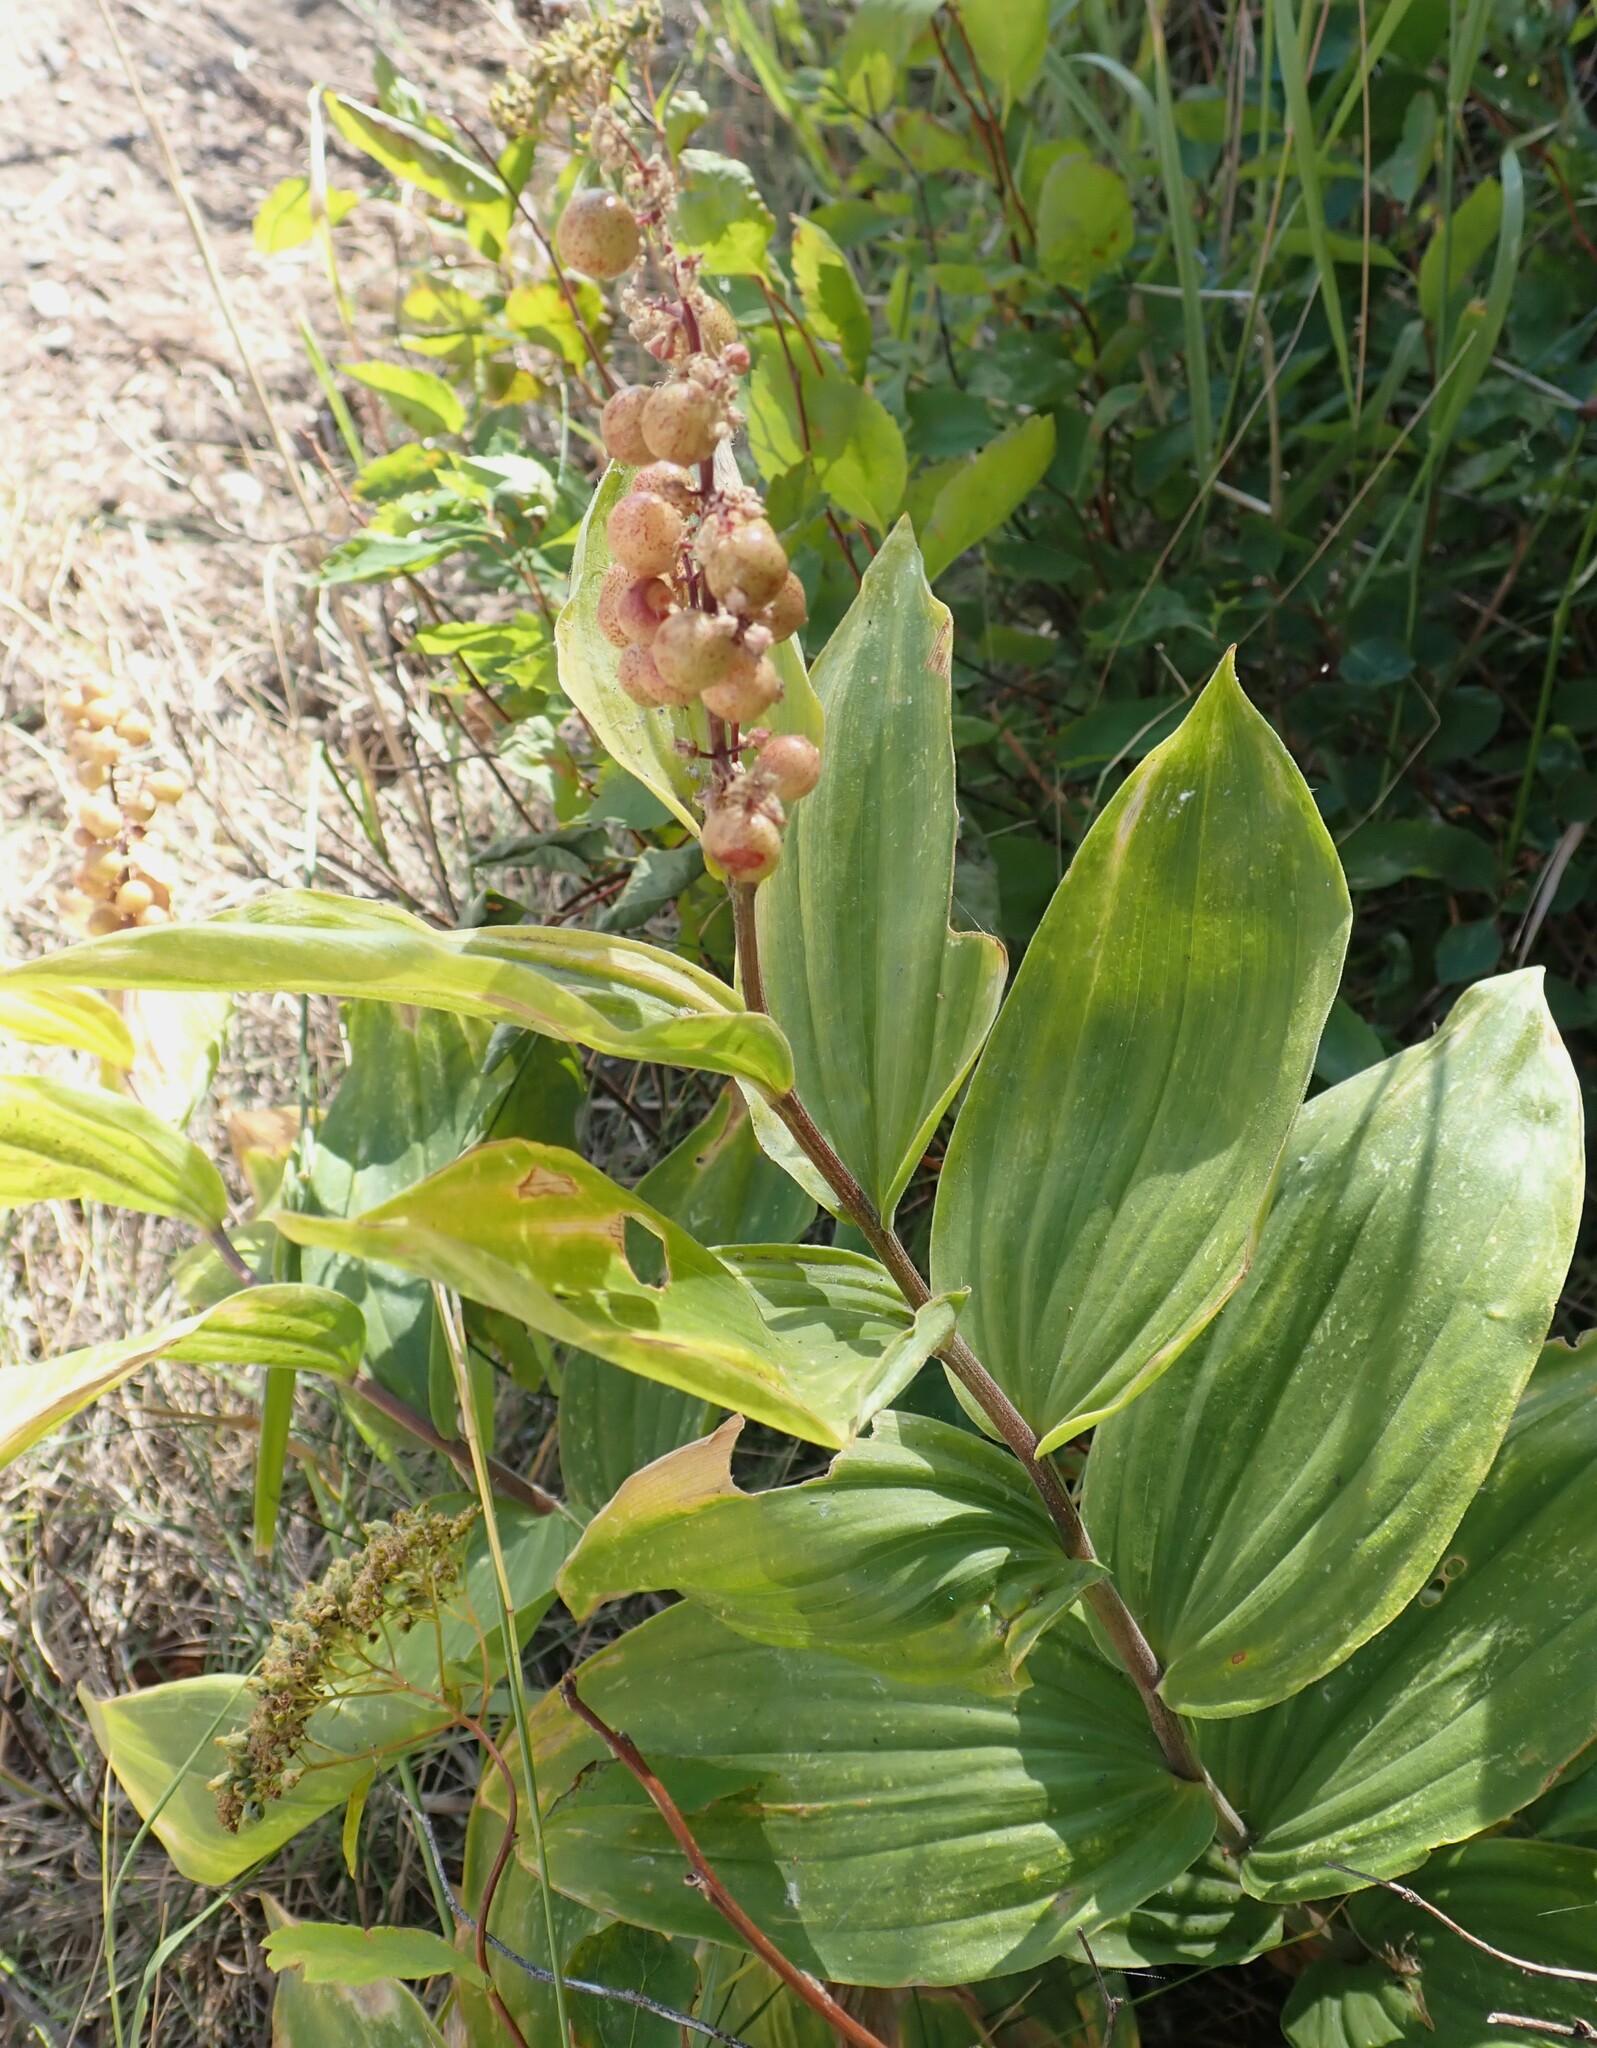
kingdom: Plantae
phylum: Tracheophyta
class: Liliopsida
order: Asparagales
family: Asparagaceae
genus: Maianthemum
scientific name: Maianthemum racemosum
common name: False spikenard
